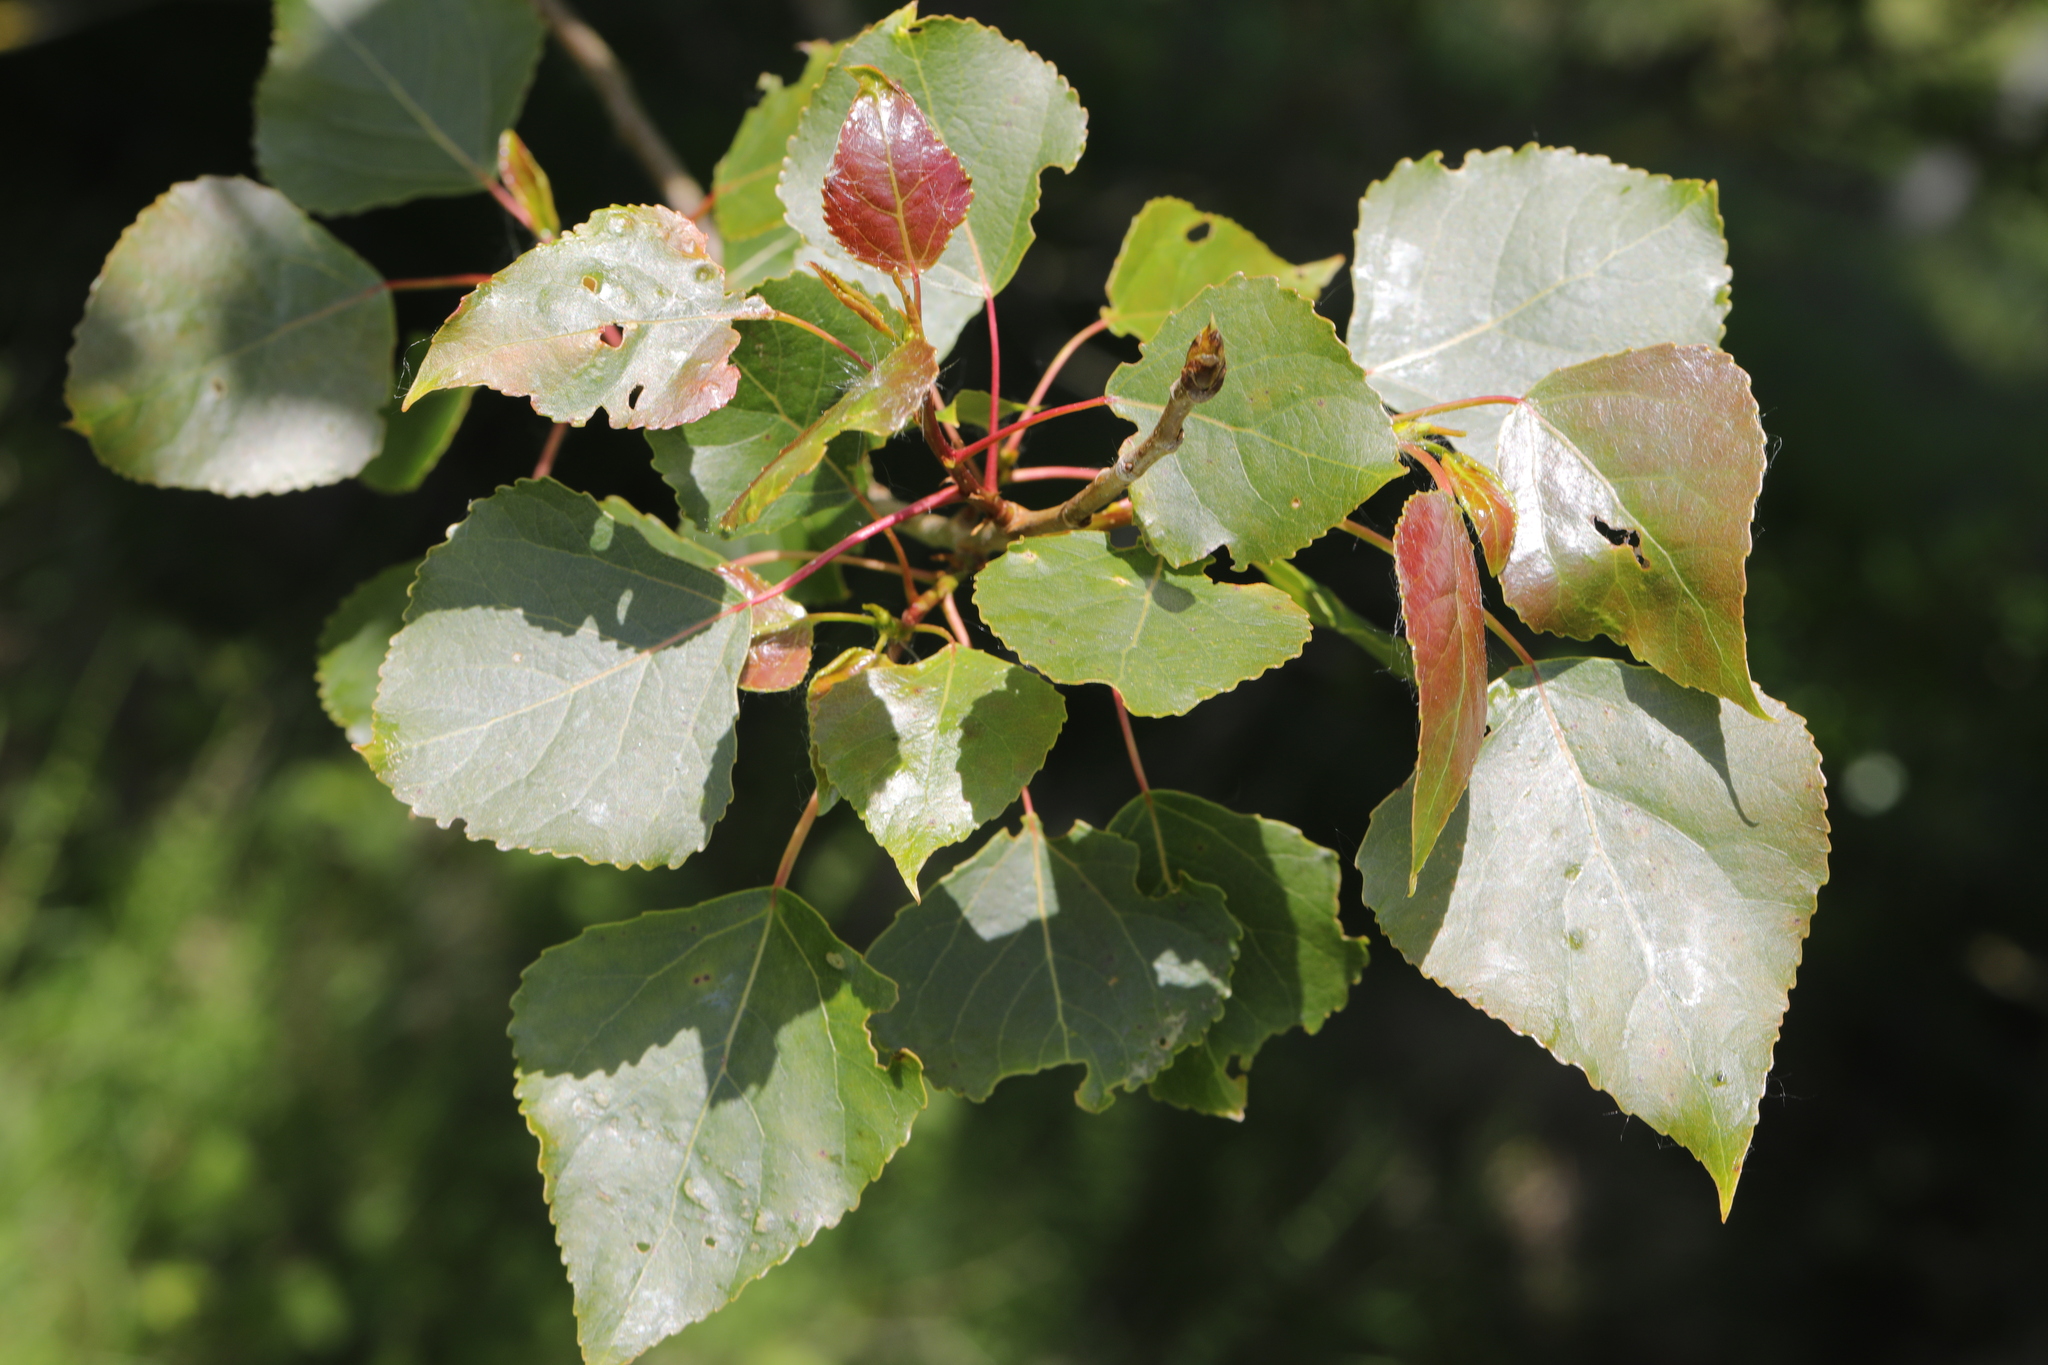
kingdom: Plantae
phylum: Tracheophyta
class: Magnoliopsida
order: Malpighiales
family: Salicaceae
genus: Populus
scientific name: Populus canadensis
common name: Carolina poplar
